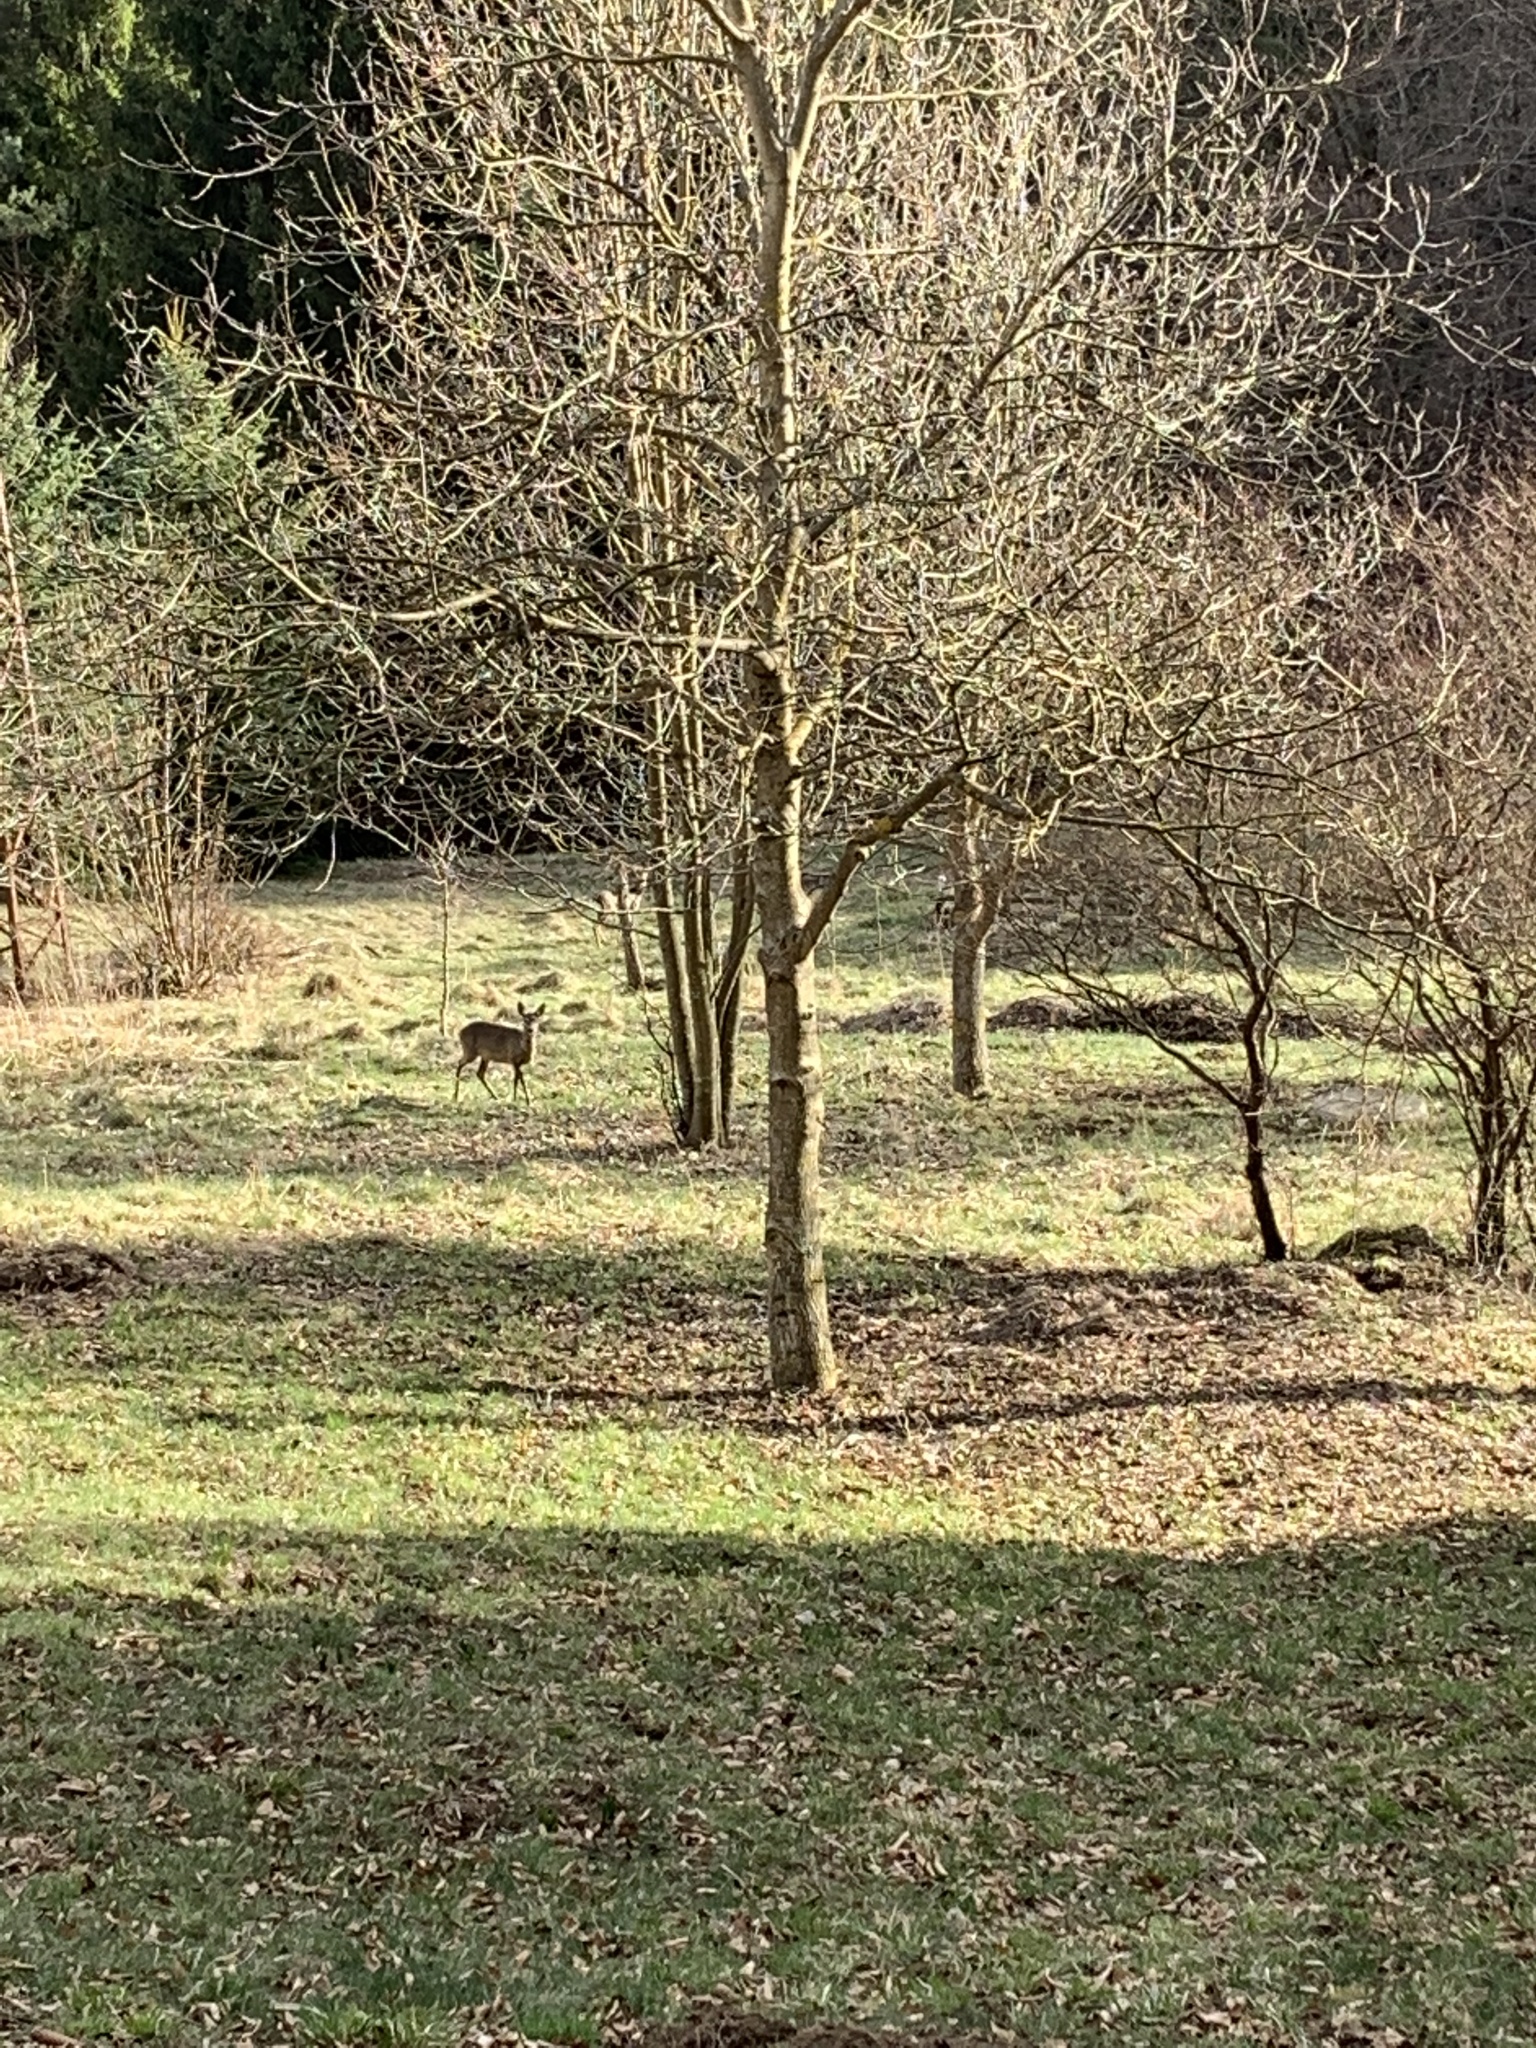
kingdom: Animalia
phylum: Chordata
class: Mammalia
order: Artiodactyla
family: Cervidae
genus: Capreolus
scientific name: Capreolus capreolus
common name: Western roe deer
